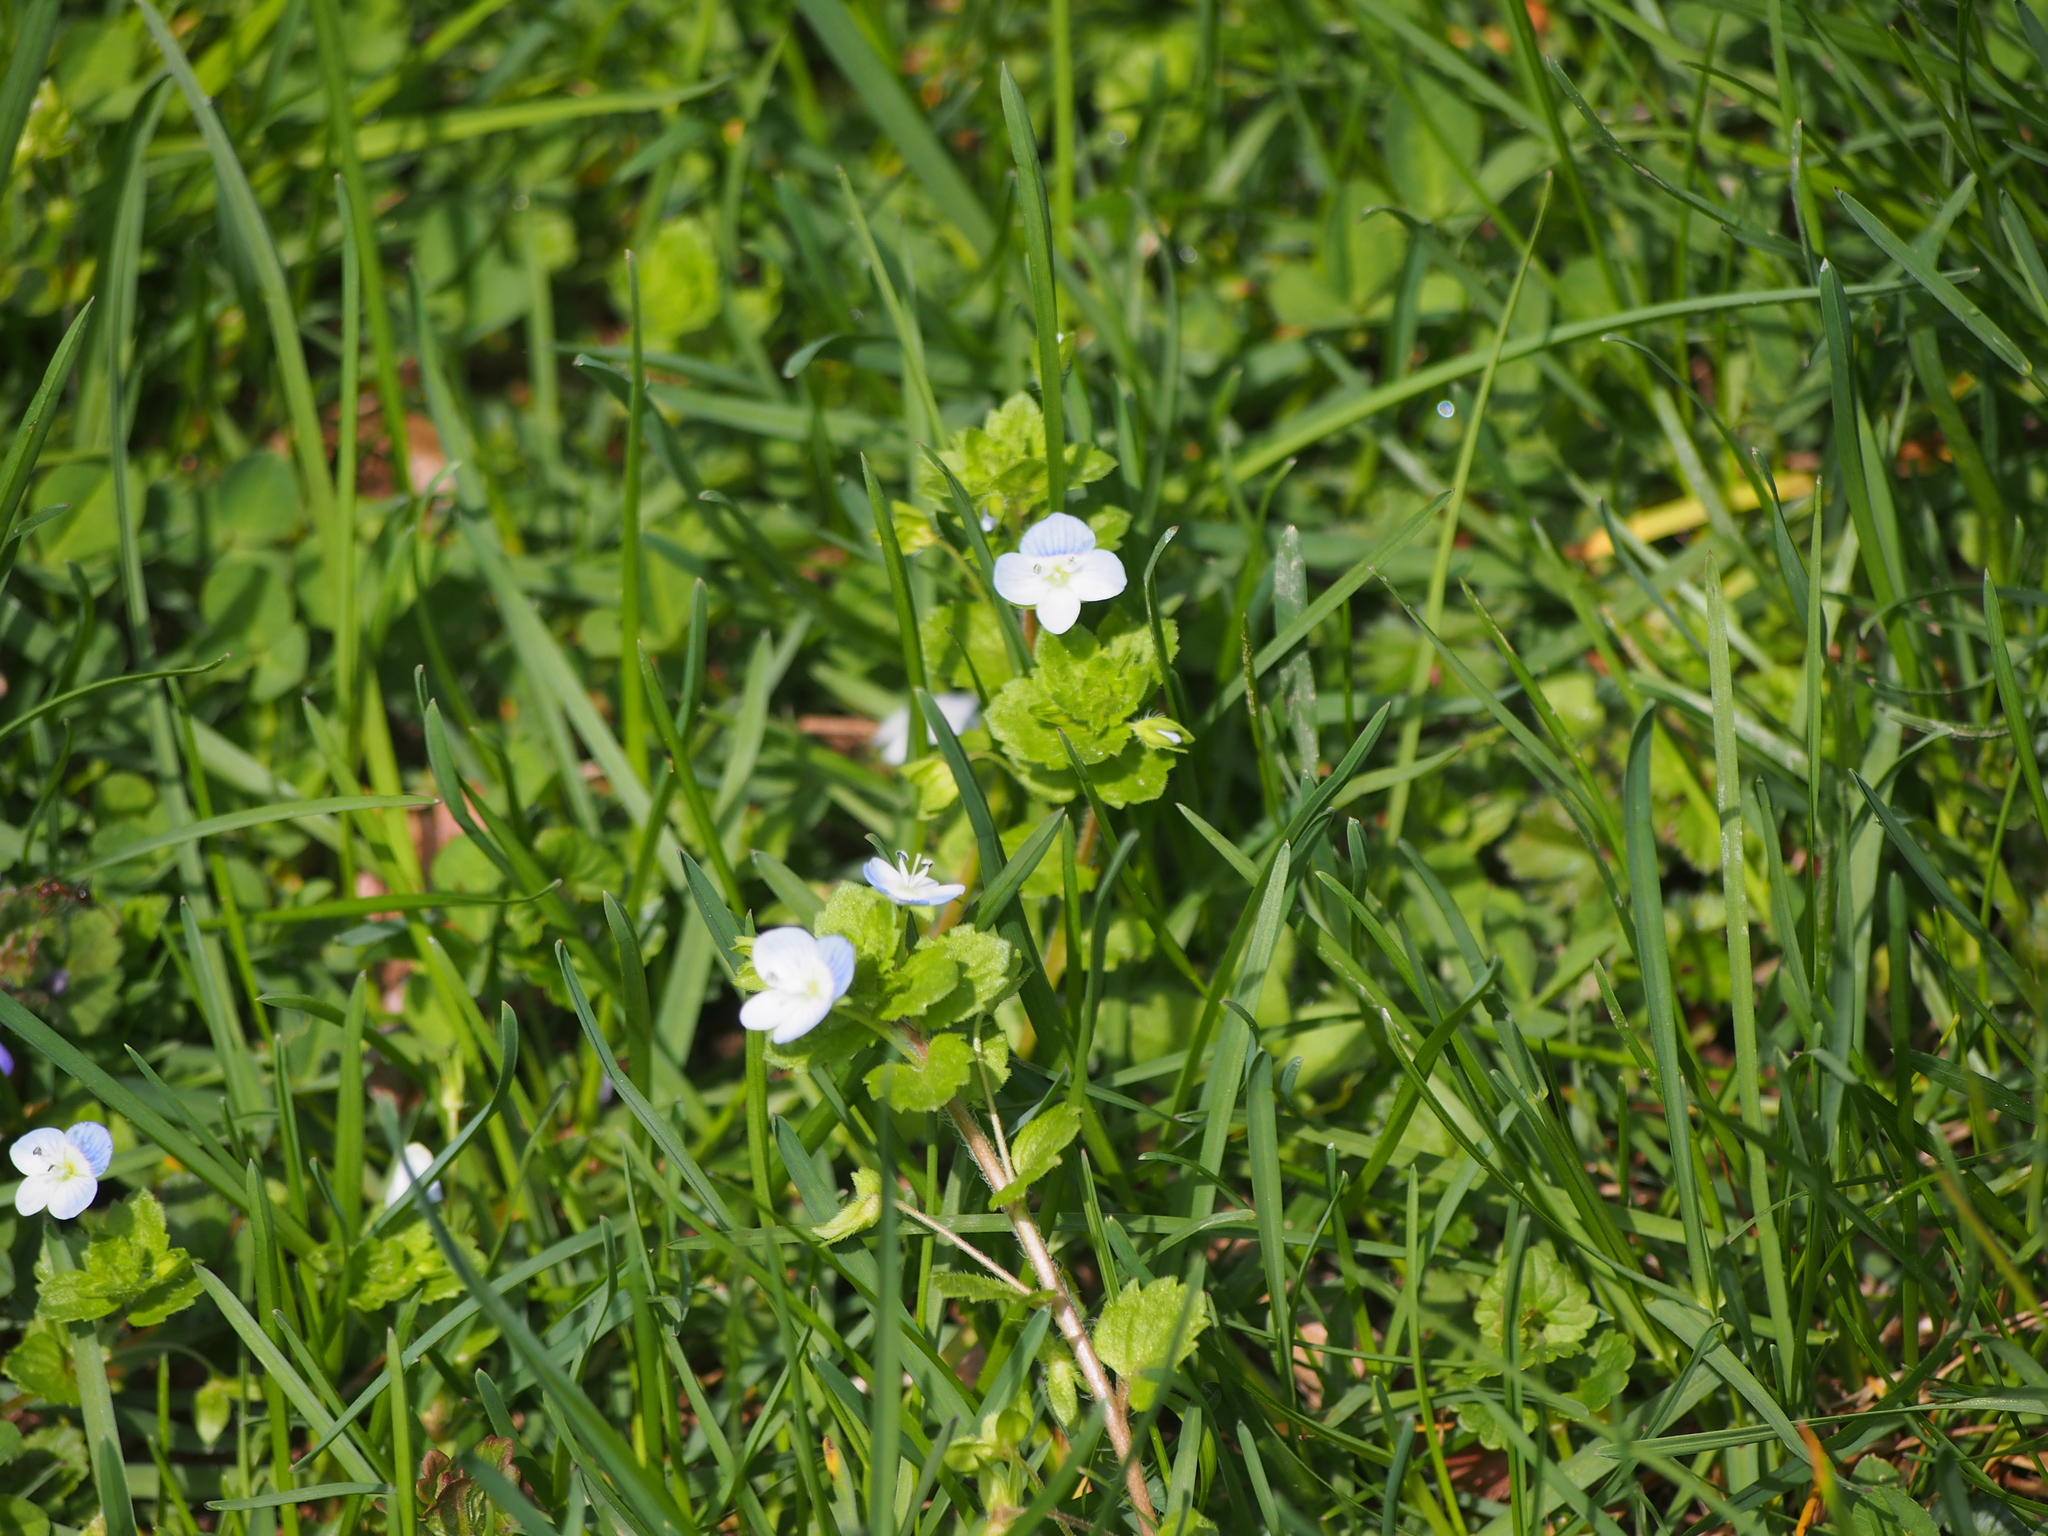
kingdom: Plantae
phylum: Tracheophyta
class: Magnoliopsida
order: Lamiales
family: Plantaginaceae
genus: Veronica
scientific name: Veronica persica
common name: Common field-speedwell
